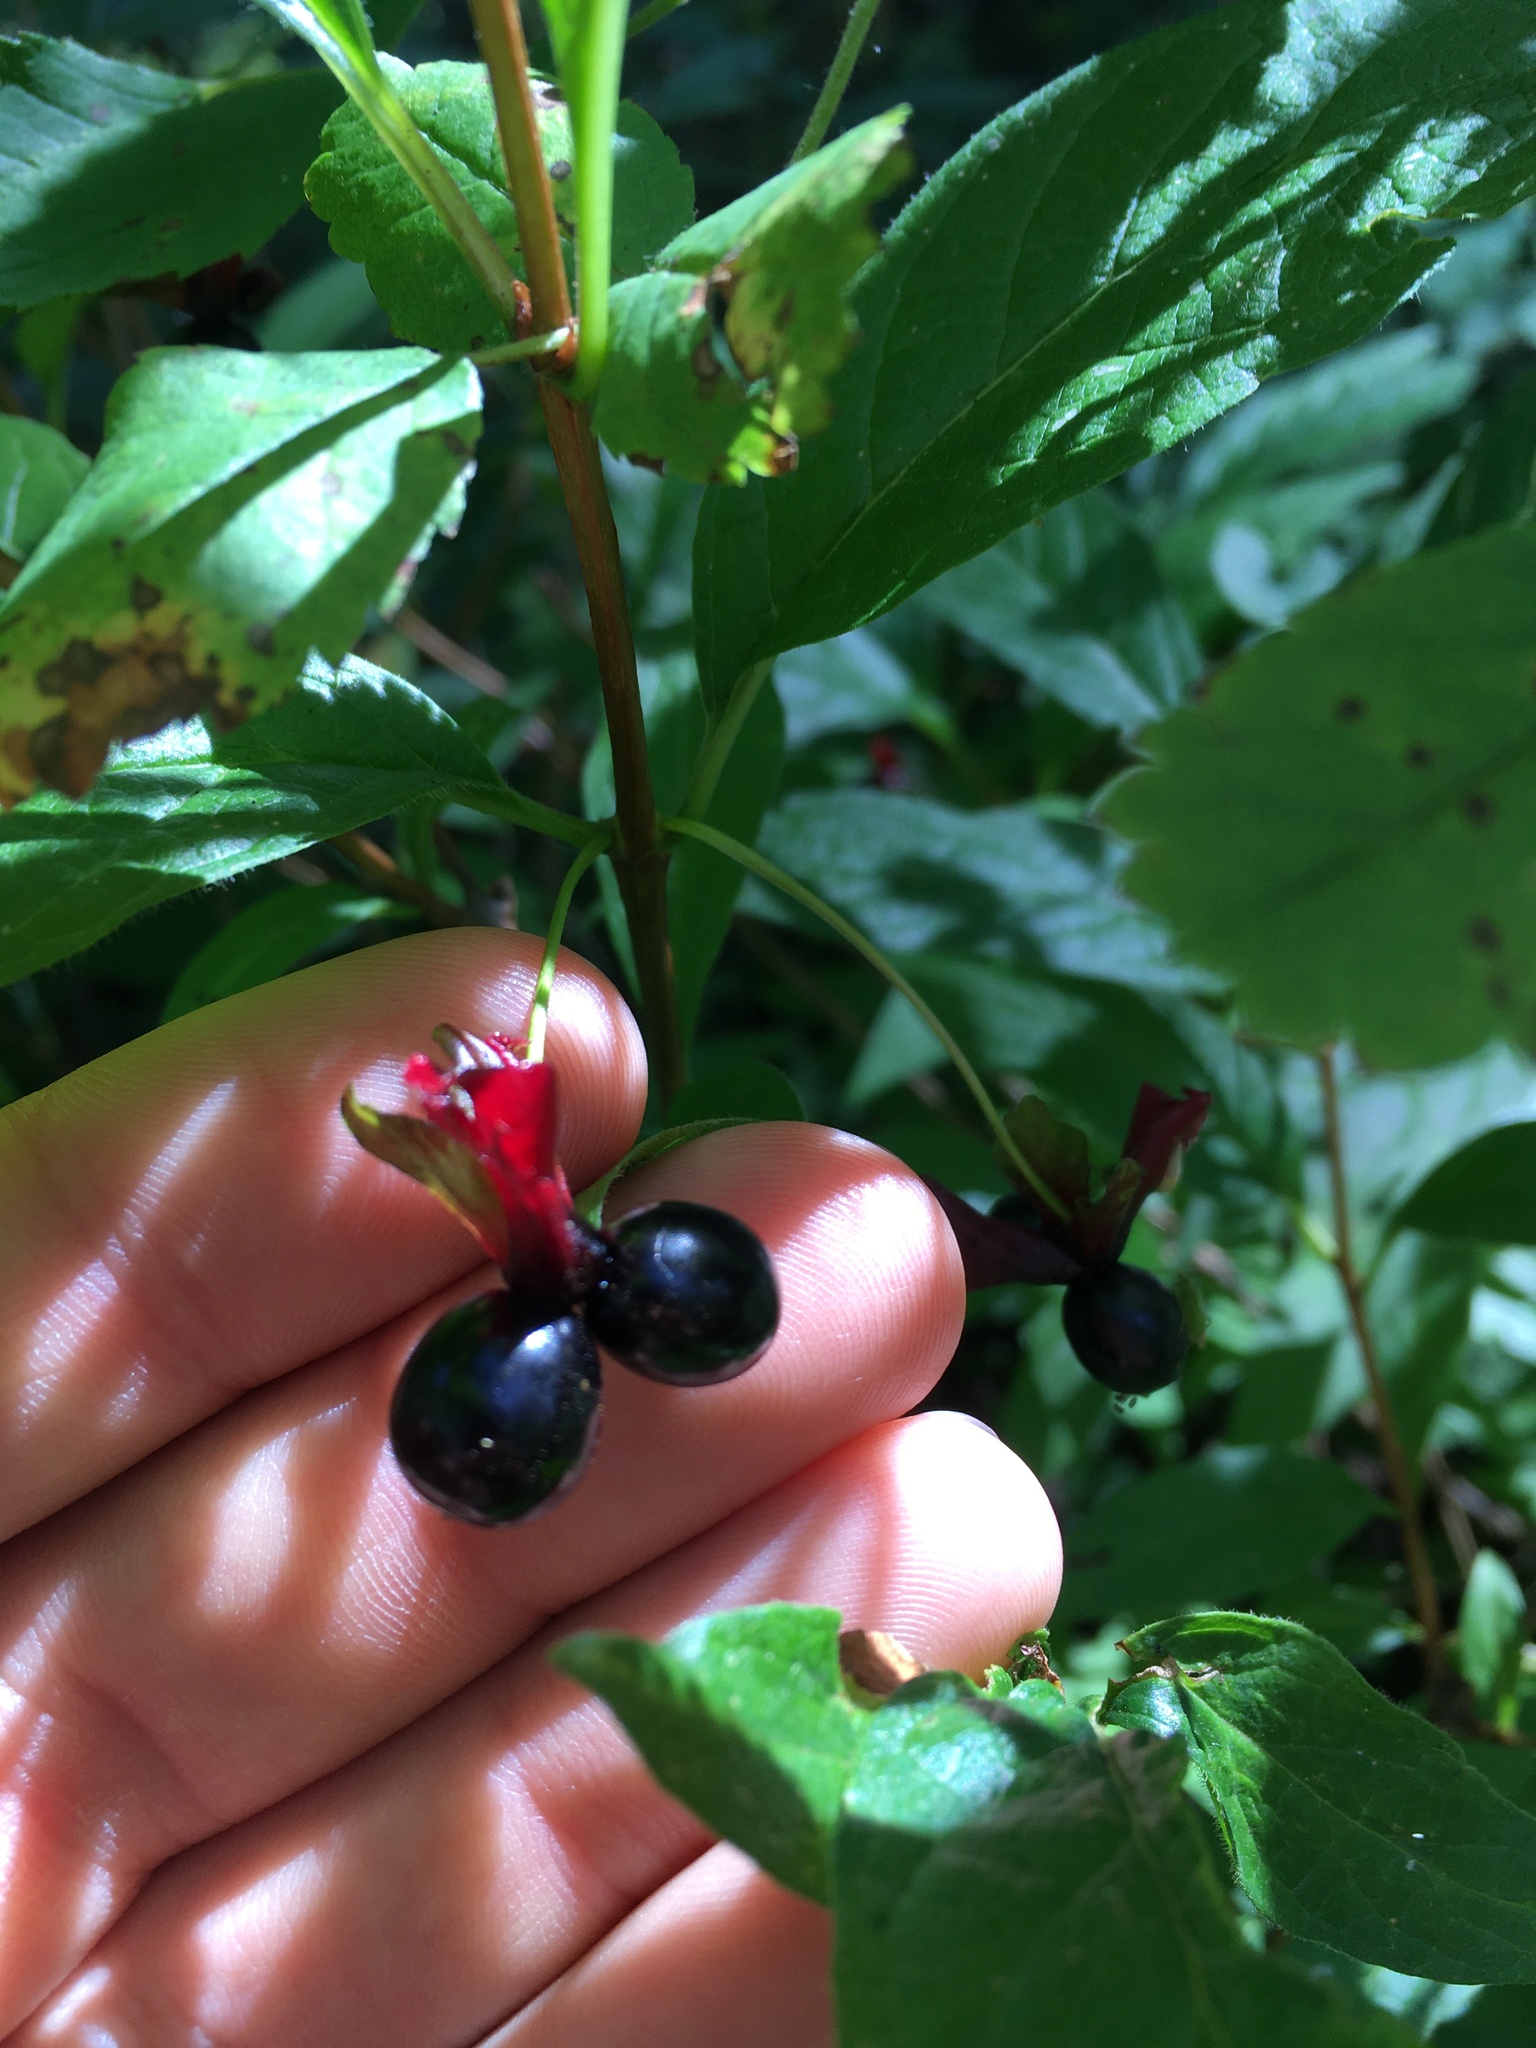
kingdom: Plantae
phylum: Tracheophyta
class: Magnoliopsida
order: Dipsacales
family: Caprifoliaceae
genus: Lonicera
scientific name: Lonicera involucrata
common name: Californian honeysuckle
